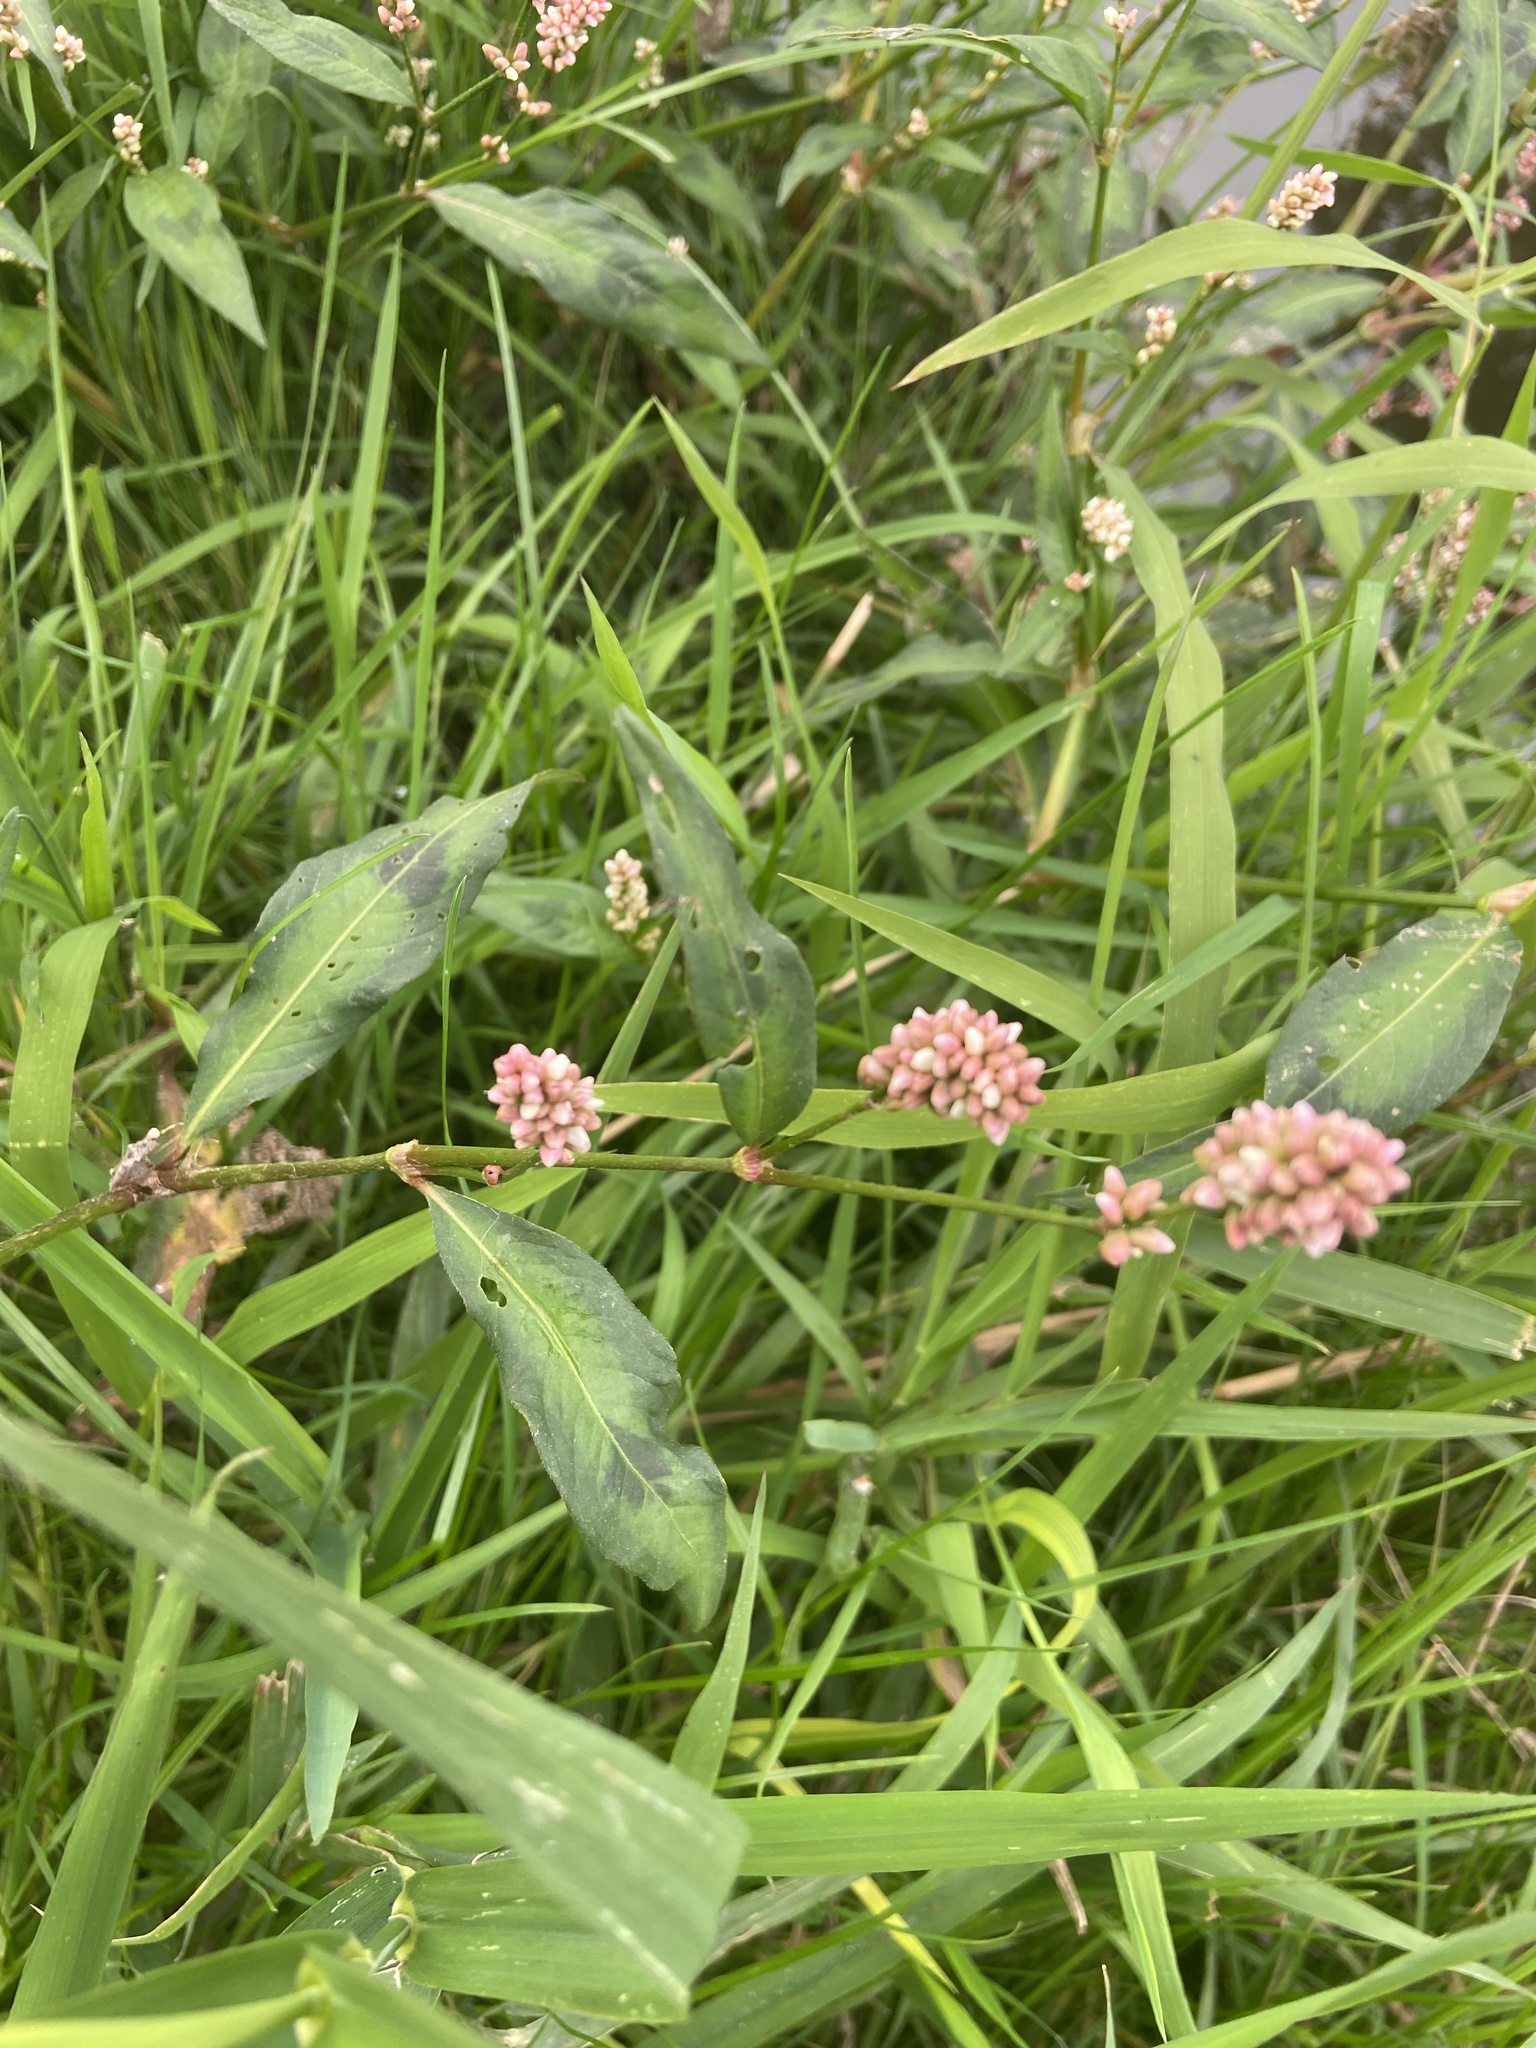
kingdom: Plantae
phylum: Tracheophyta
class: Magnoliopsida
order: Caryophyllales
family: Polygonaceae
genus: Persicaria
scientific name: Persicaria maculosa
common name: Redshank
